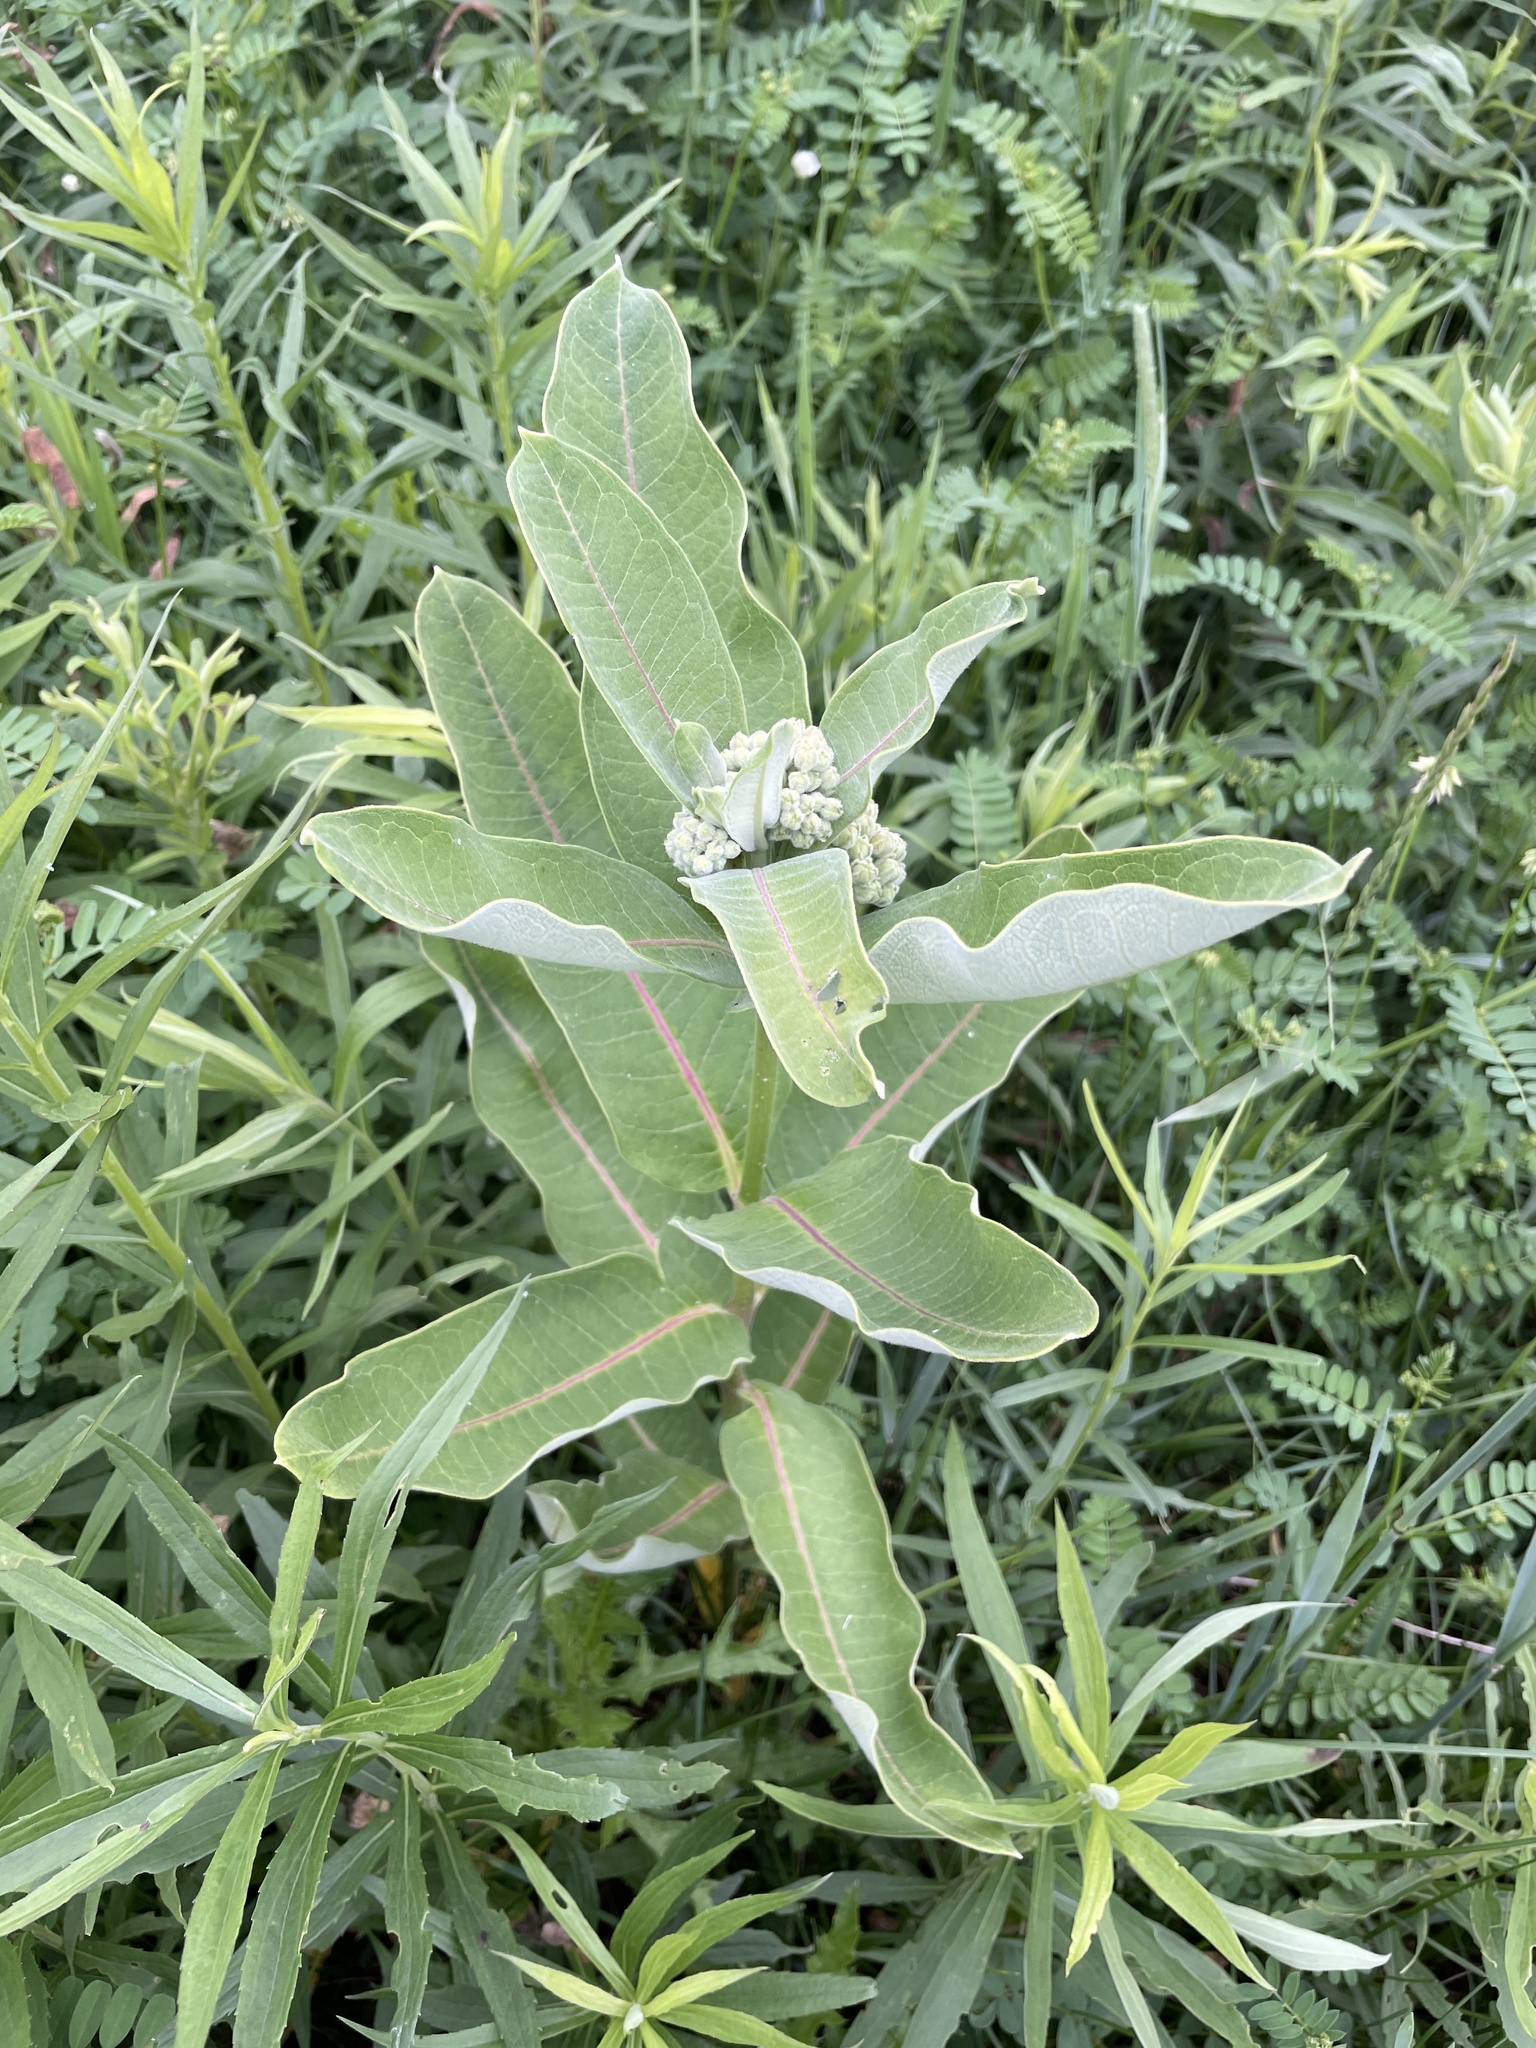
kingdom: Plantae
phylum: Tracheophyta
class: Magnoliopsida
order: Gentianales
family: Apocynaceae
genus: Asclepias
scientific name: Asclepias syriaca
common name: Common milkweed
